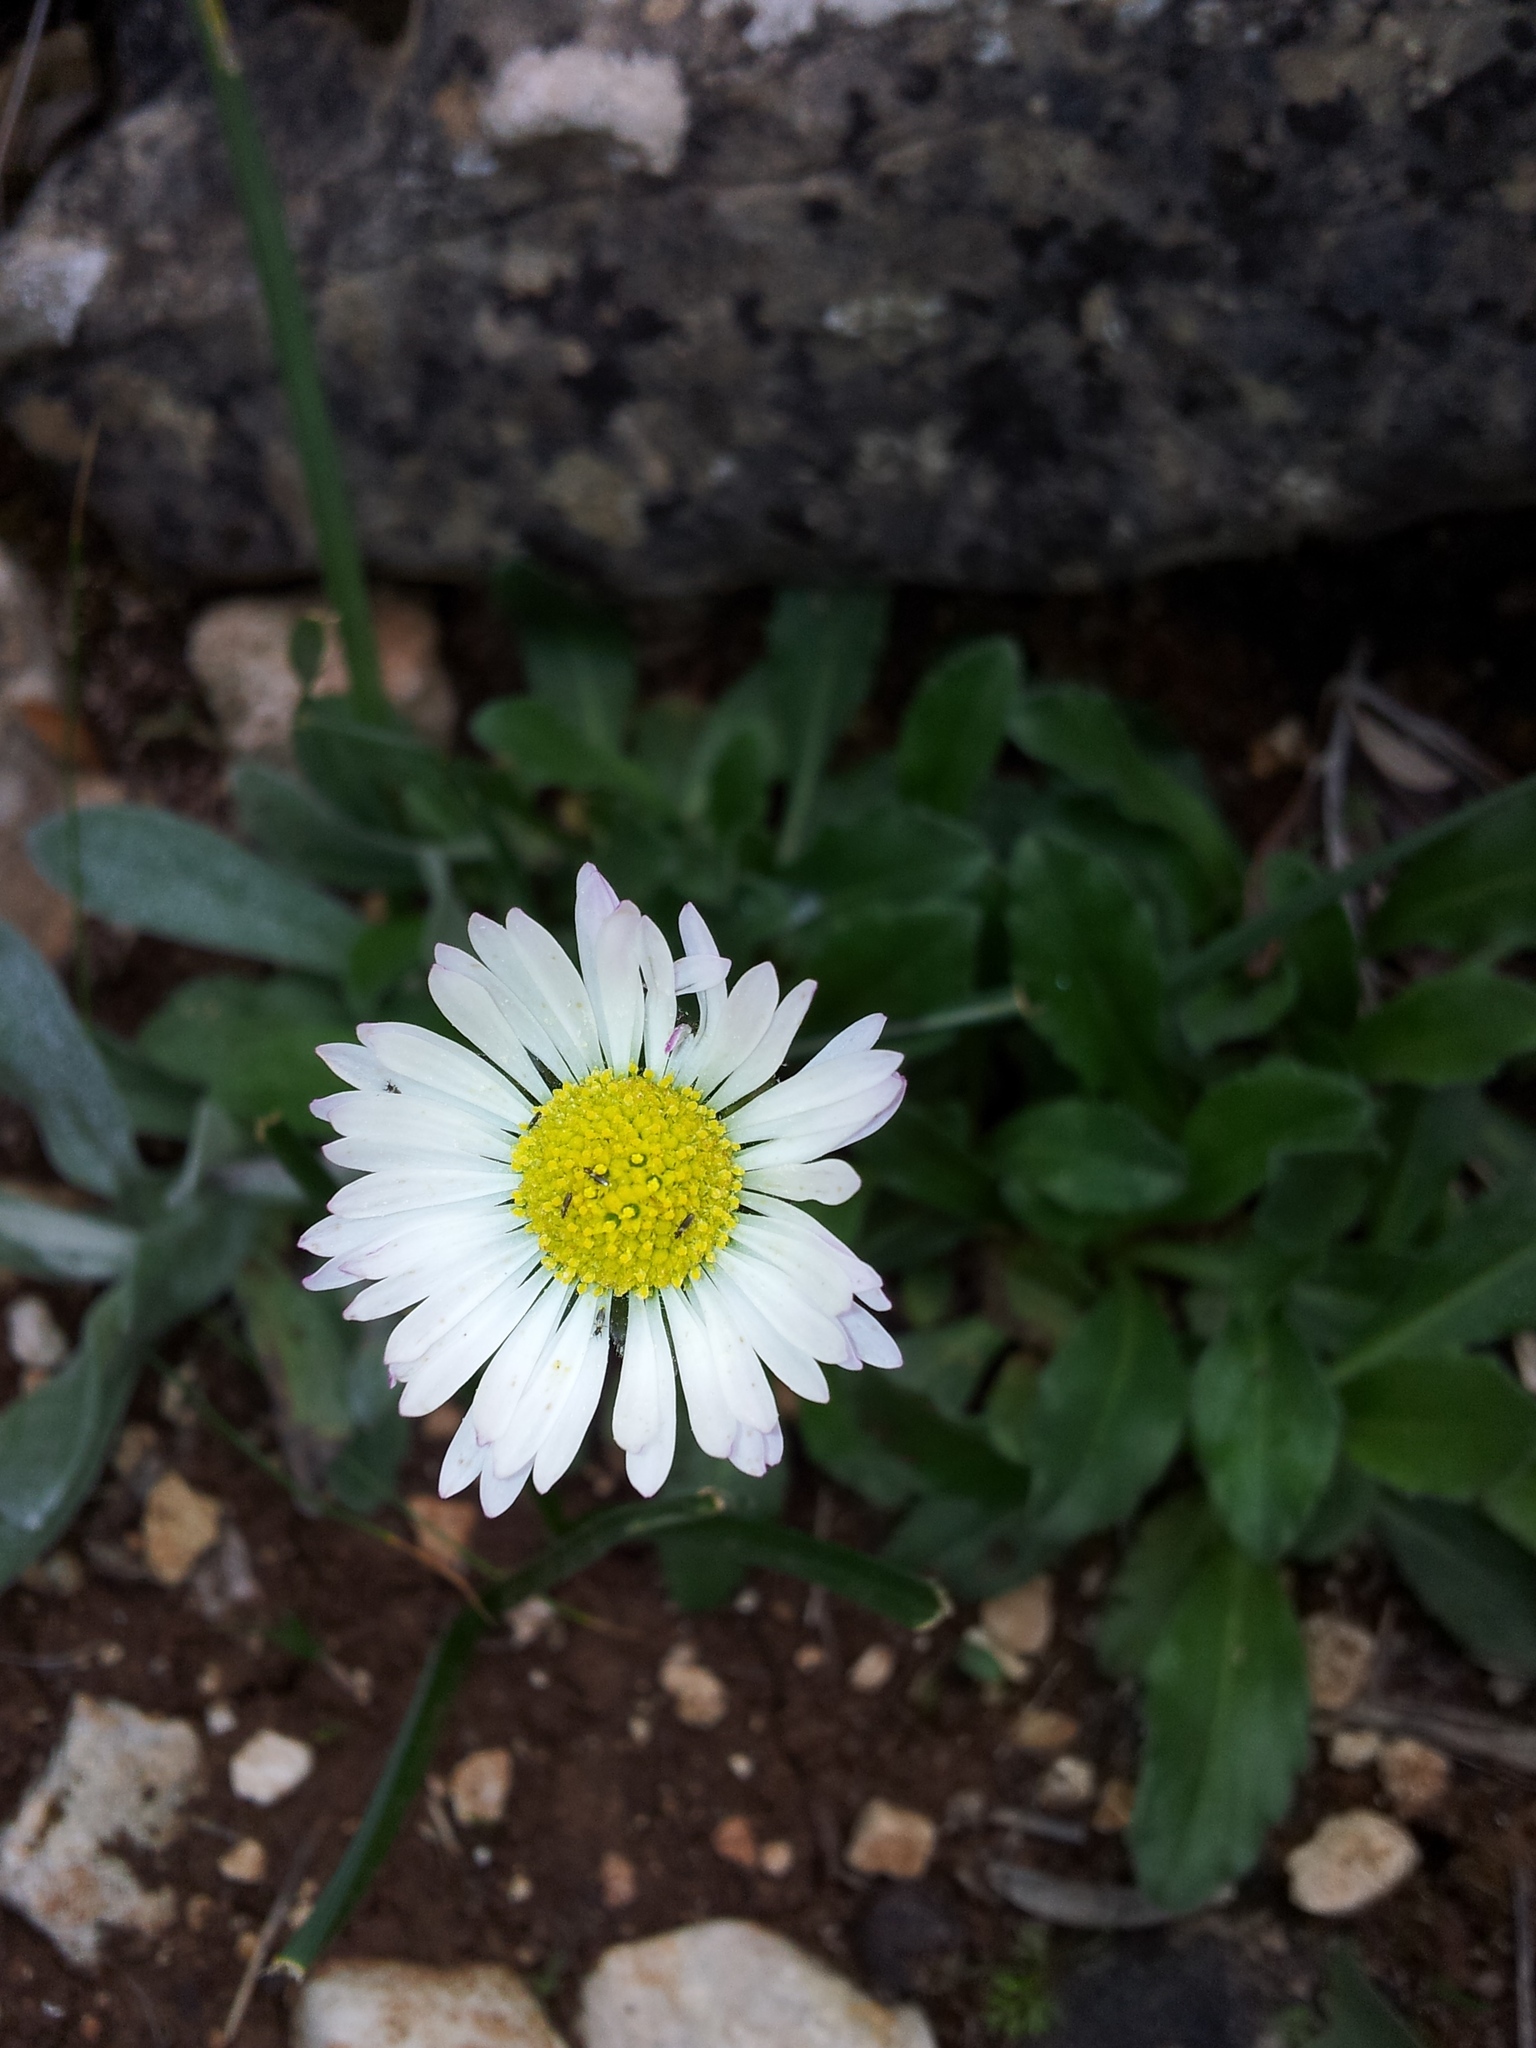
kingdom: Plantae
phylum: Tracheophyta
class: Magnoliopsida
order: Asterales
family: Asteraceae
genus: Bellis
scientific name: Bellis sylvestris
